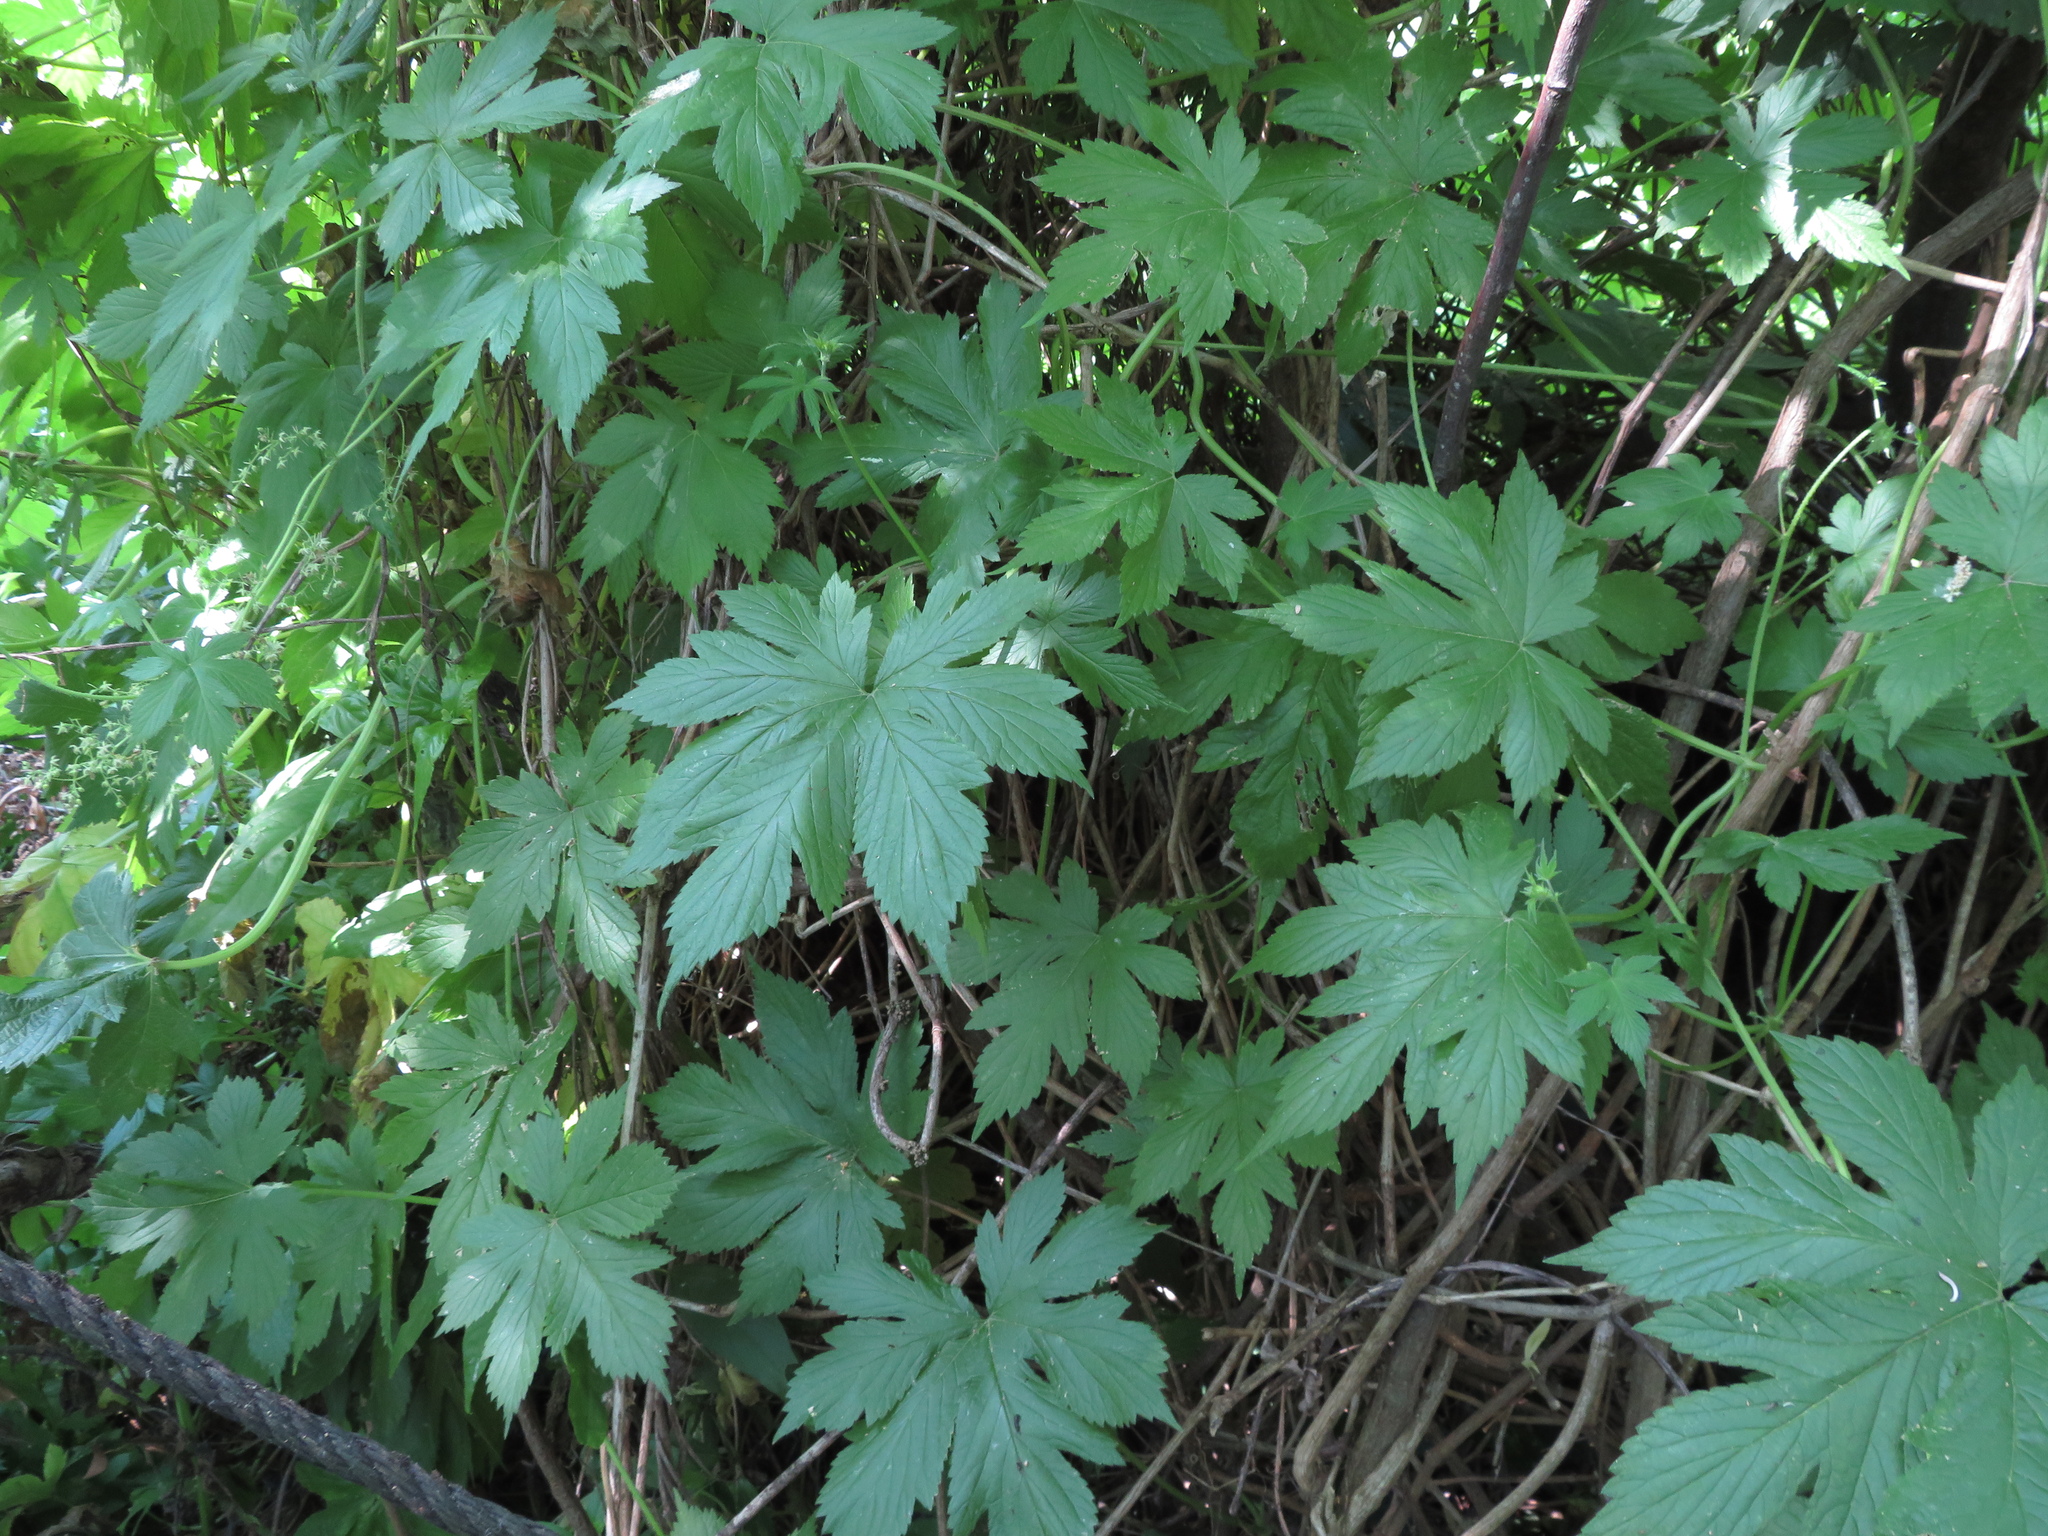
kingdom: Plantae
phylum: Tracheophyta
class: Magnoliopsida
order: Rosales
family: Cannabaceae
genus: Humulus
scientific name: Humulus scandens
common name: Japanese hop
